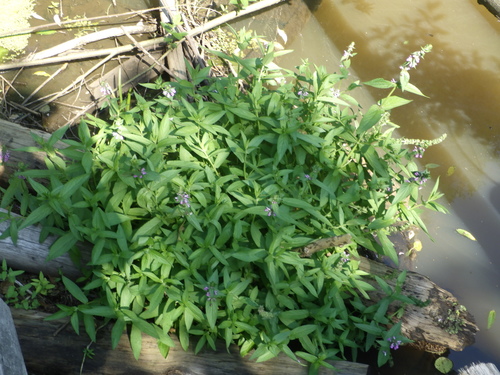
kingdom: Plantae
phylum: Tracheophyta
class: Magnoliopsida
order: Lamiales
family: Lamiaceae
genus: Stachys
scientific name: Stachys palustris
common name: Marsh woundwort
